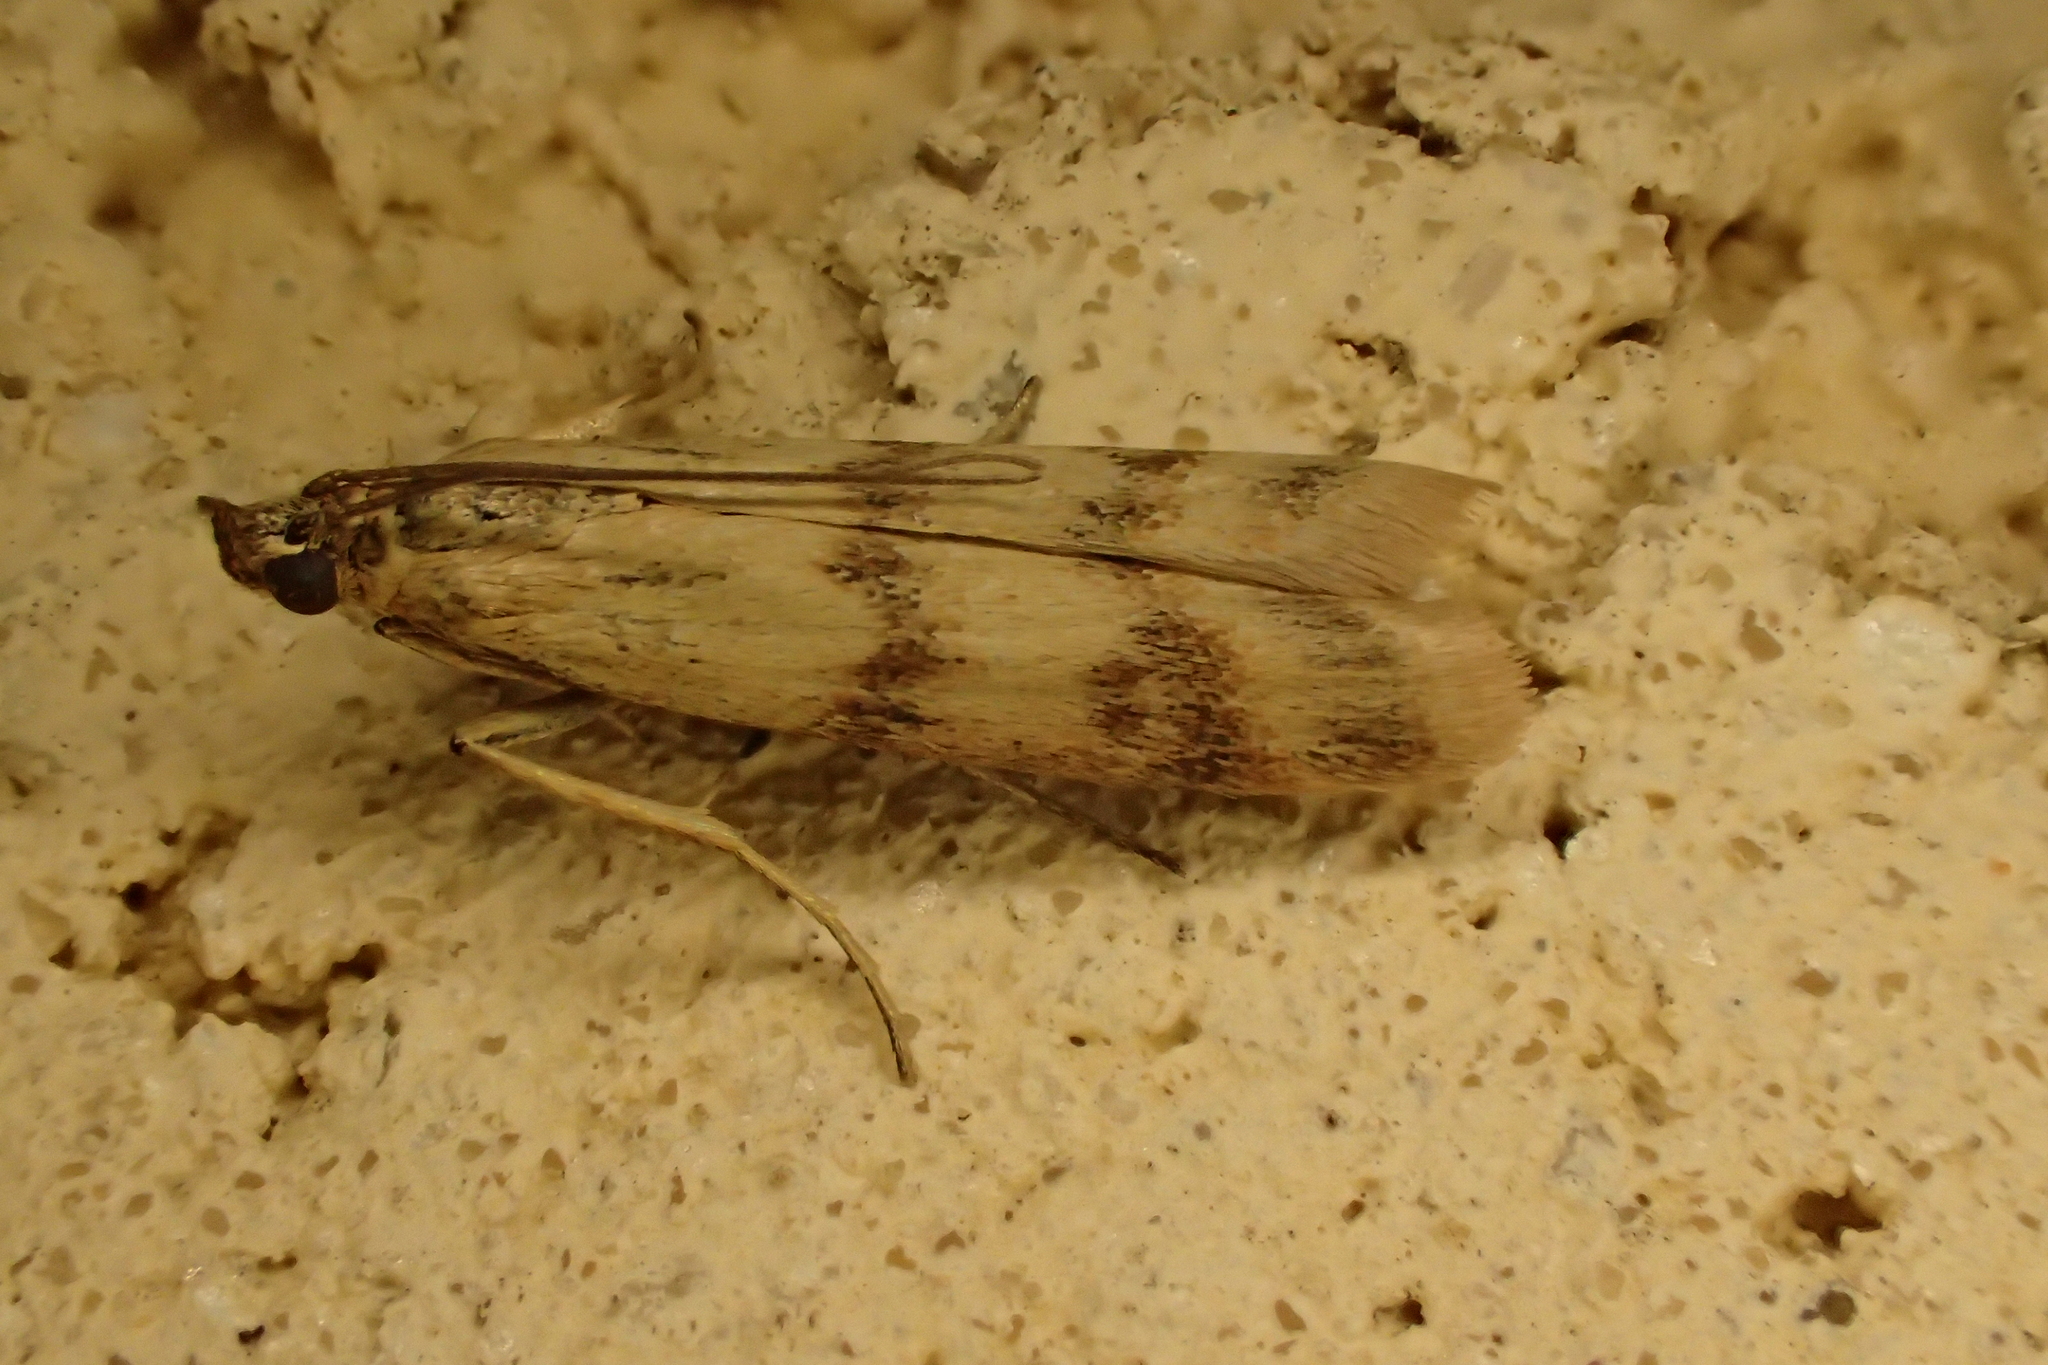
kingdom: Animalia
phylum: Arthropoda
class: Insecta
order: Lepidoptera
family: Pyralidae
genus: Homoeosoma
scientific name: Homoeosoma sinuella
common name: Twin-barred knot-horn
